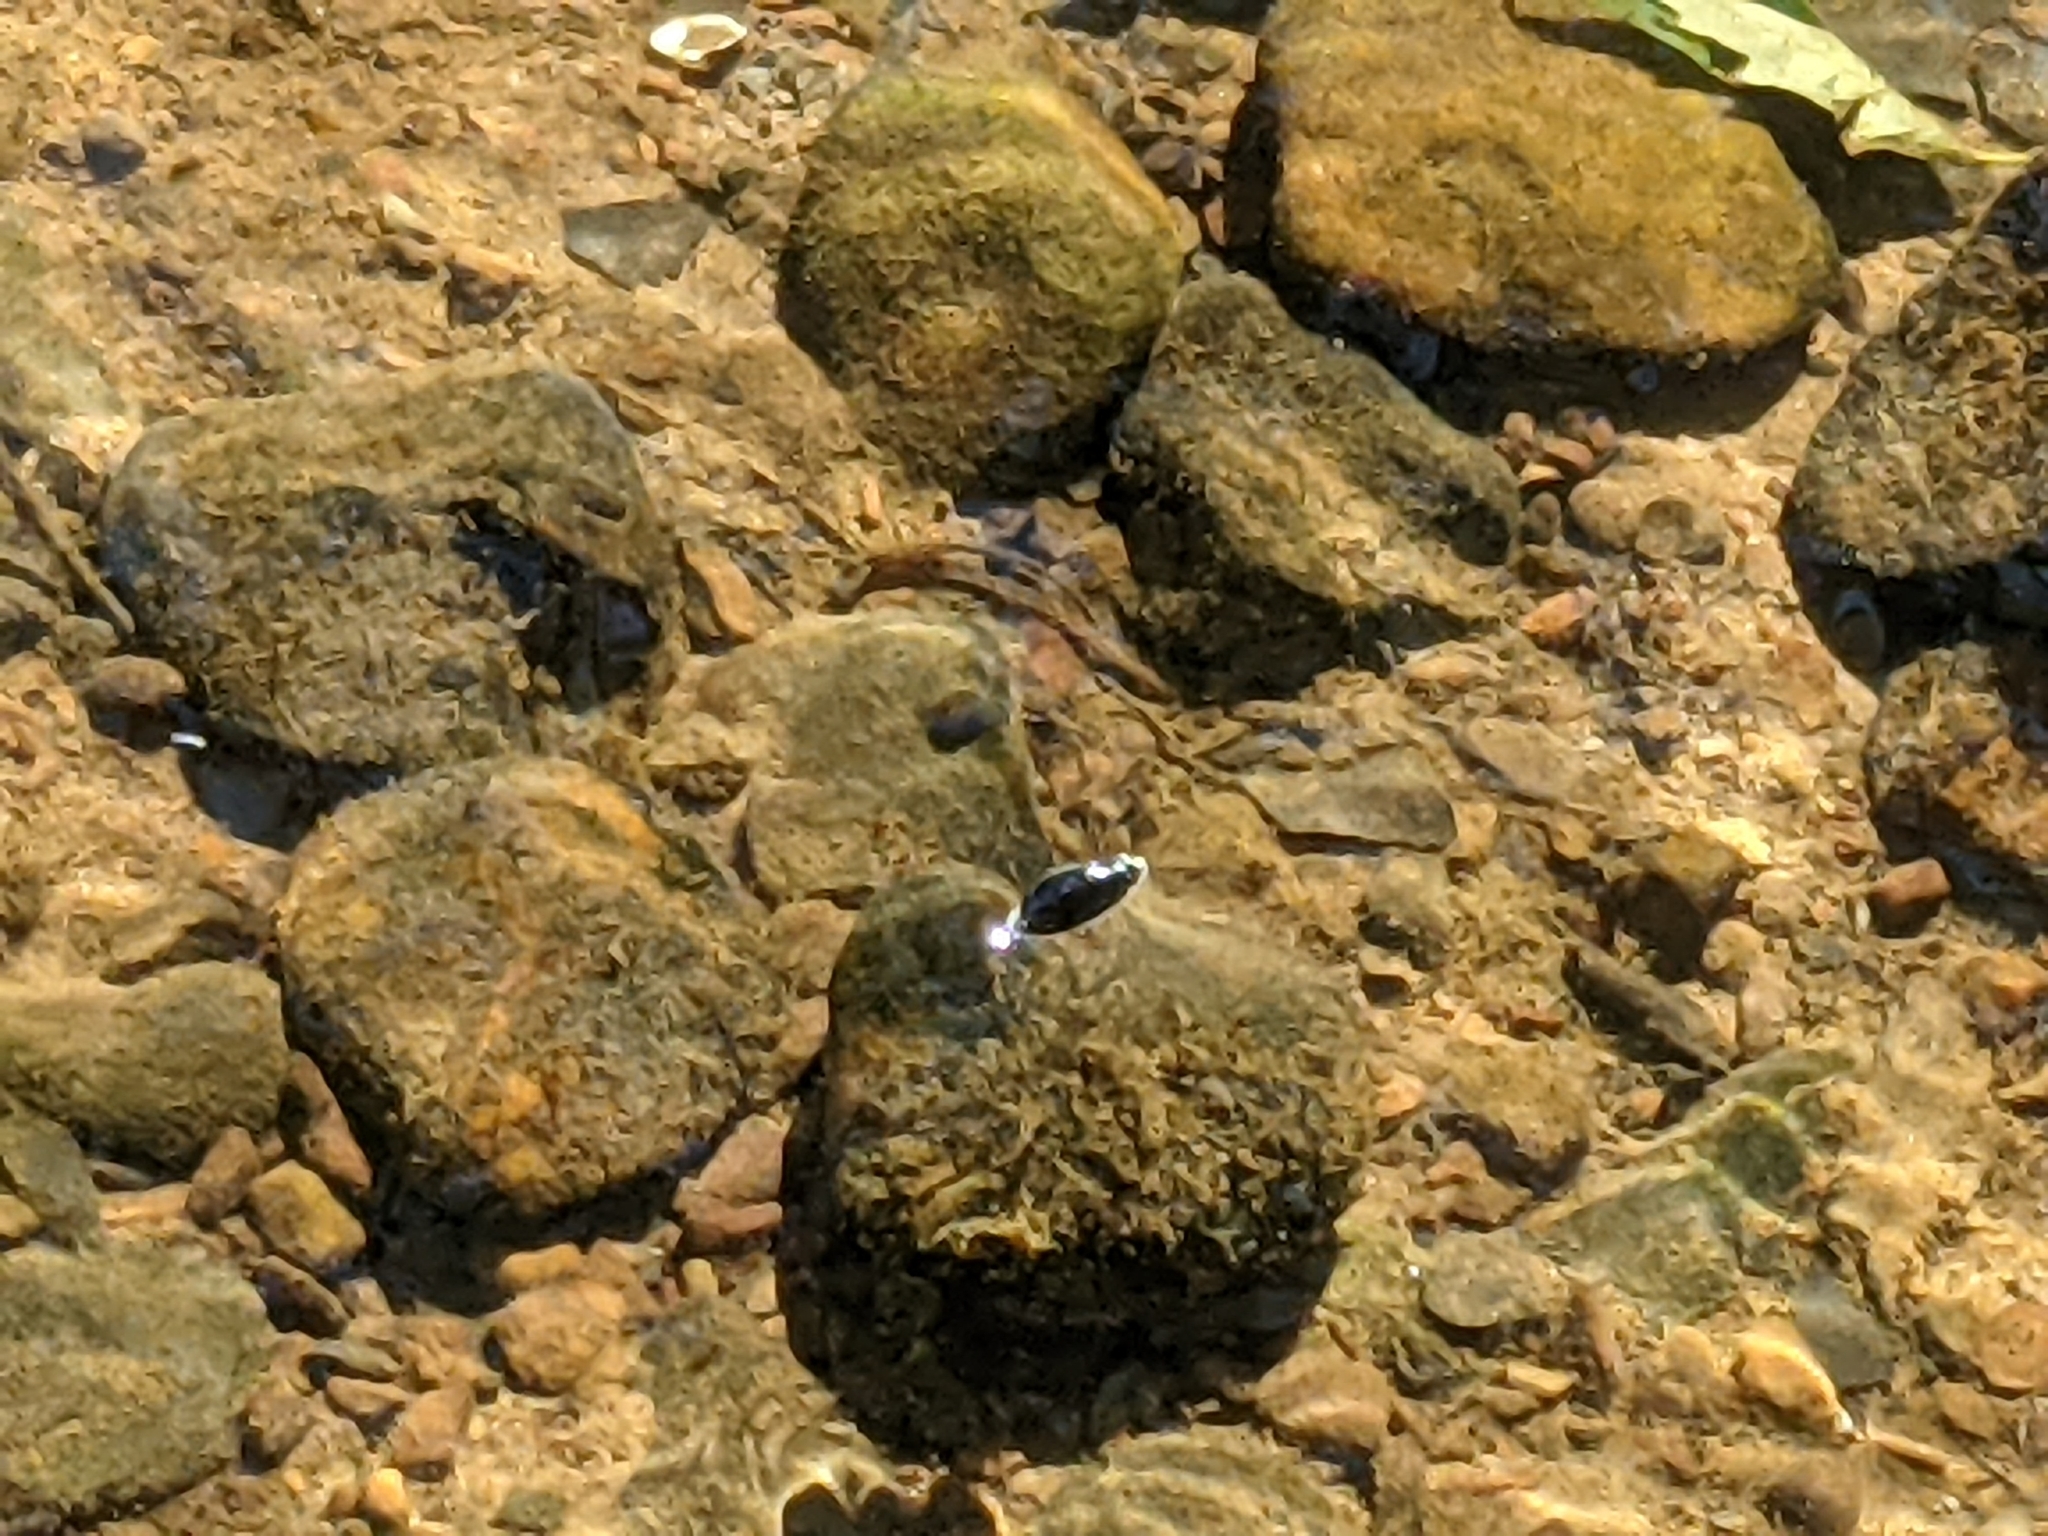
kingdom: Animalia
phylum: Arthropoda
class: Insecta
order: Coleoptera
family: Gyrinidae
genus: Dineutus
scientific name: Dineutus
